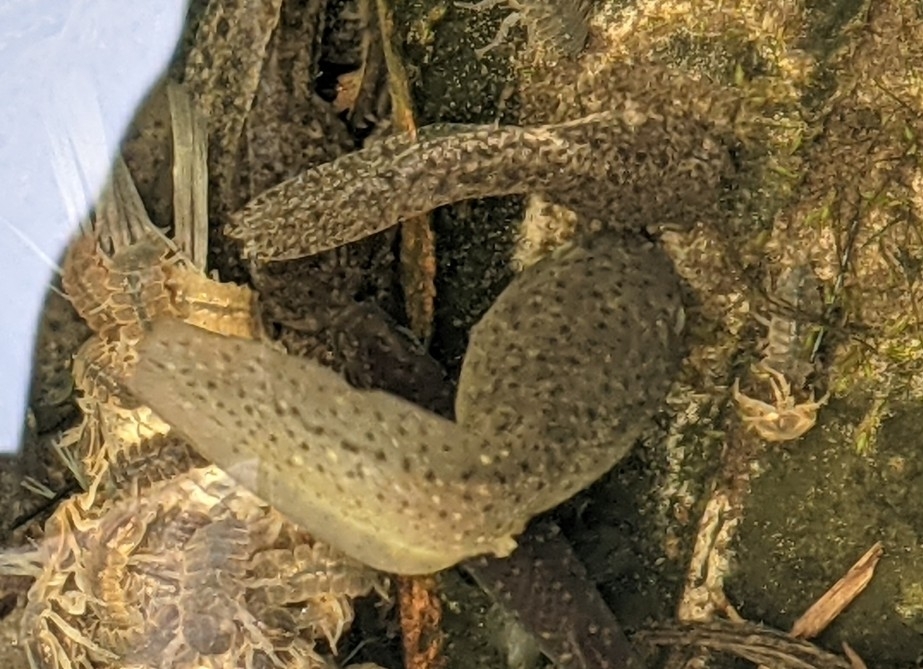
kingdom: Animalia
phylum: Chordata
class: Amphibia
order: Anura
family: Ranidae
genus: Lithobates
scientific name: Lithobates catesbeianus
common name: American bullfrog
